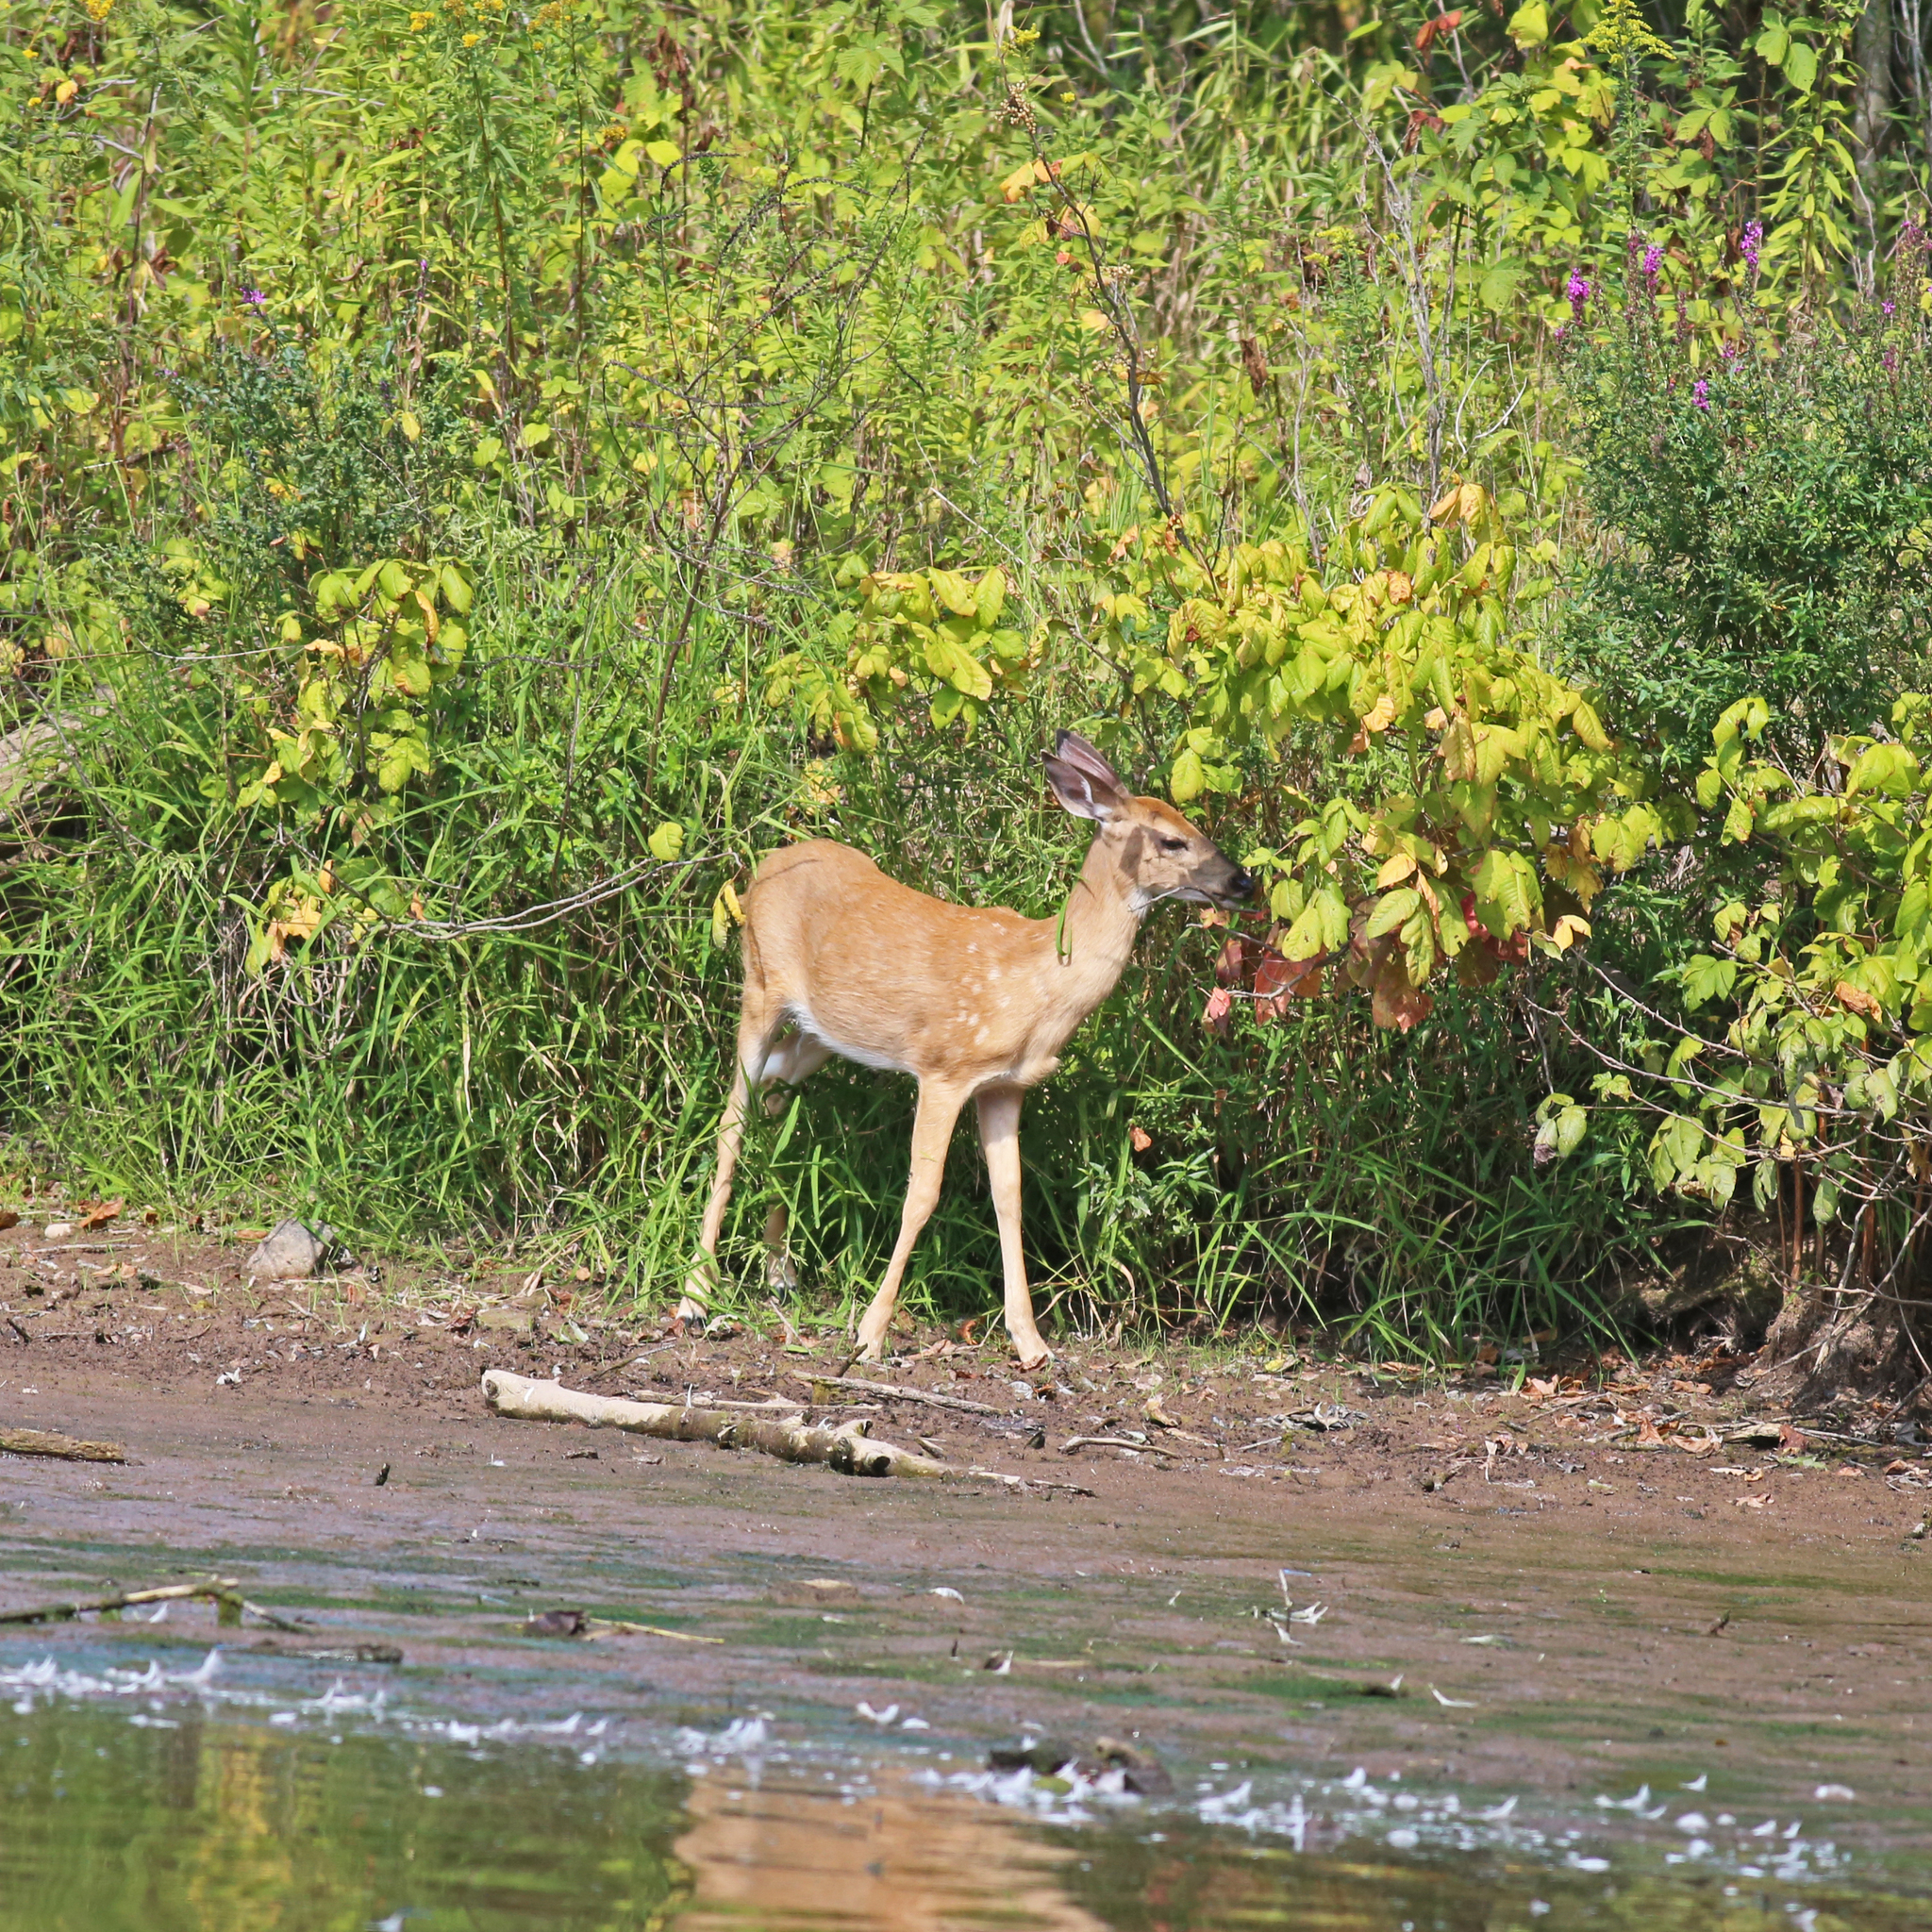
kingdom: Animalia
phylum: Chordata
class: Mammalia
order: Artiodactyla
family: Cervidae
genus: Odocoileus
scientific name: Odocoileus virginianus
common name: White-tailed deer
